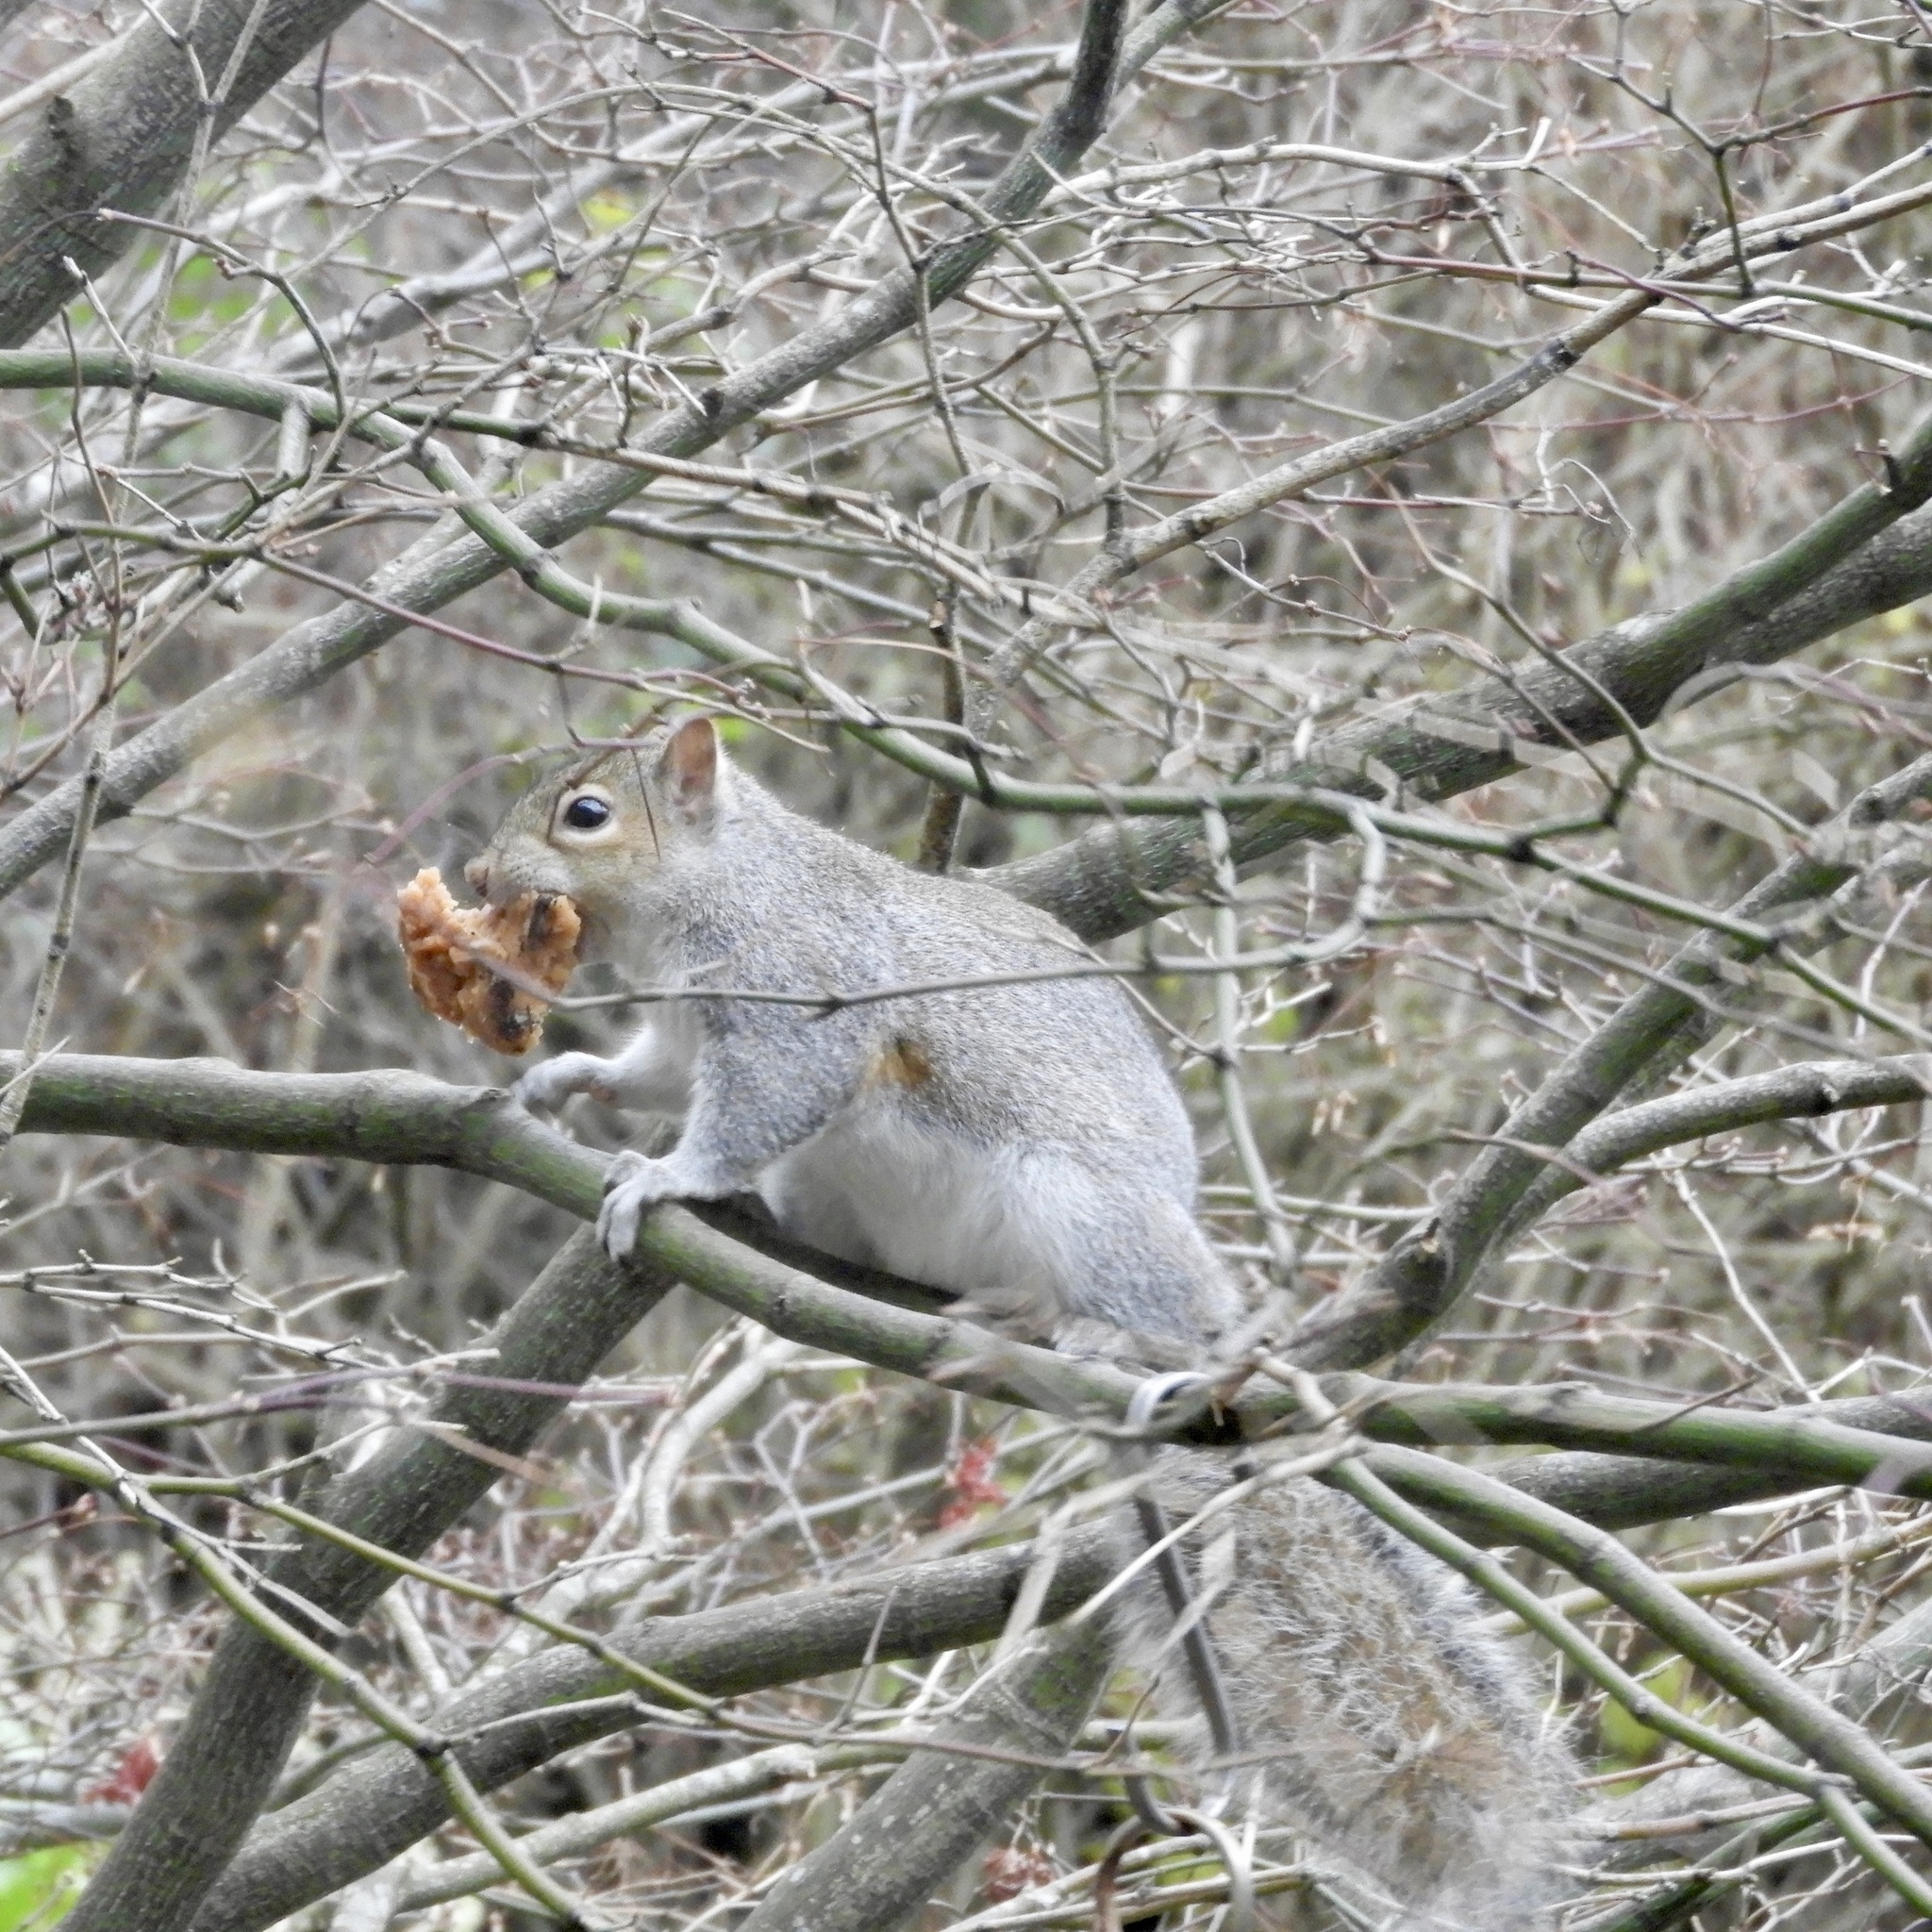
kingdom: Animalia
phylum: Chordata
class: Mammalia
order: Rodentia
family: Sciuridae
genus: Sciurus
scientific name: Sciurus carolinensis
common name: Eastern gray squirrel
